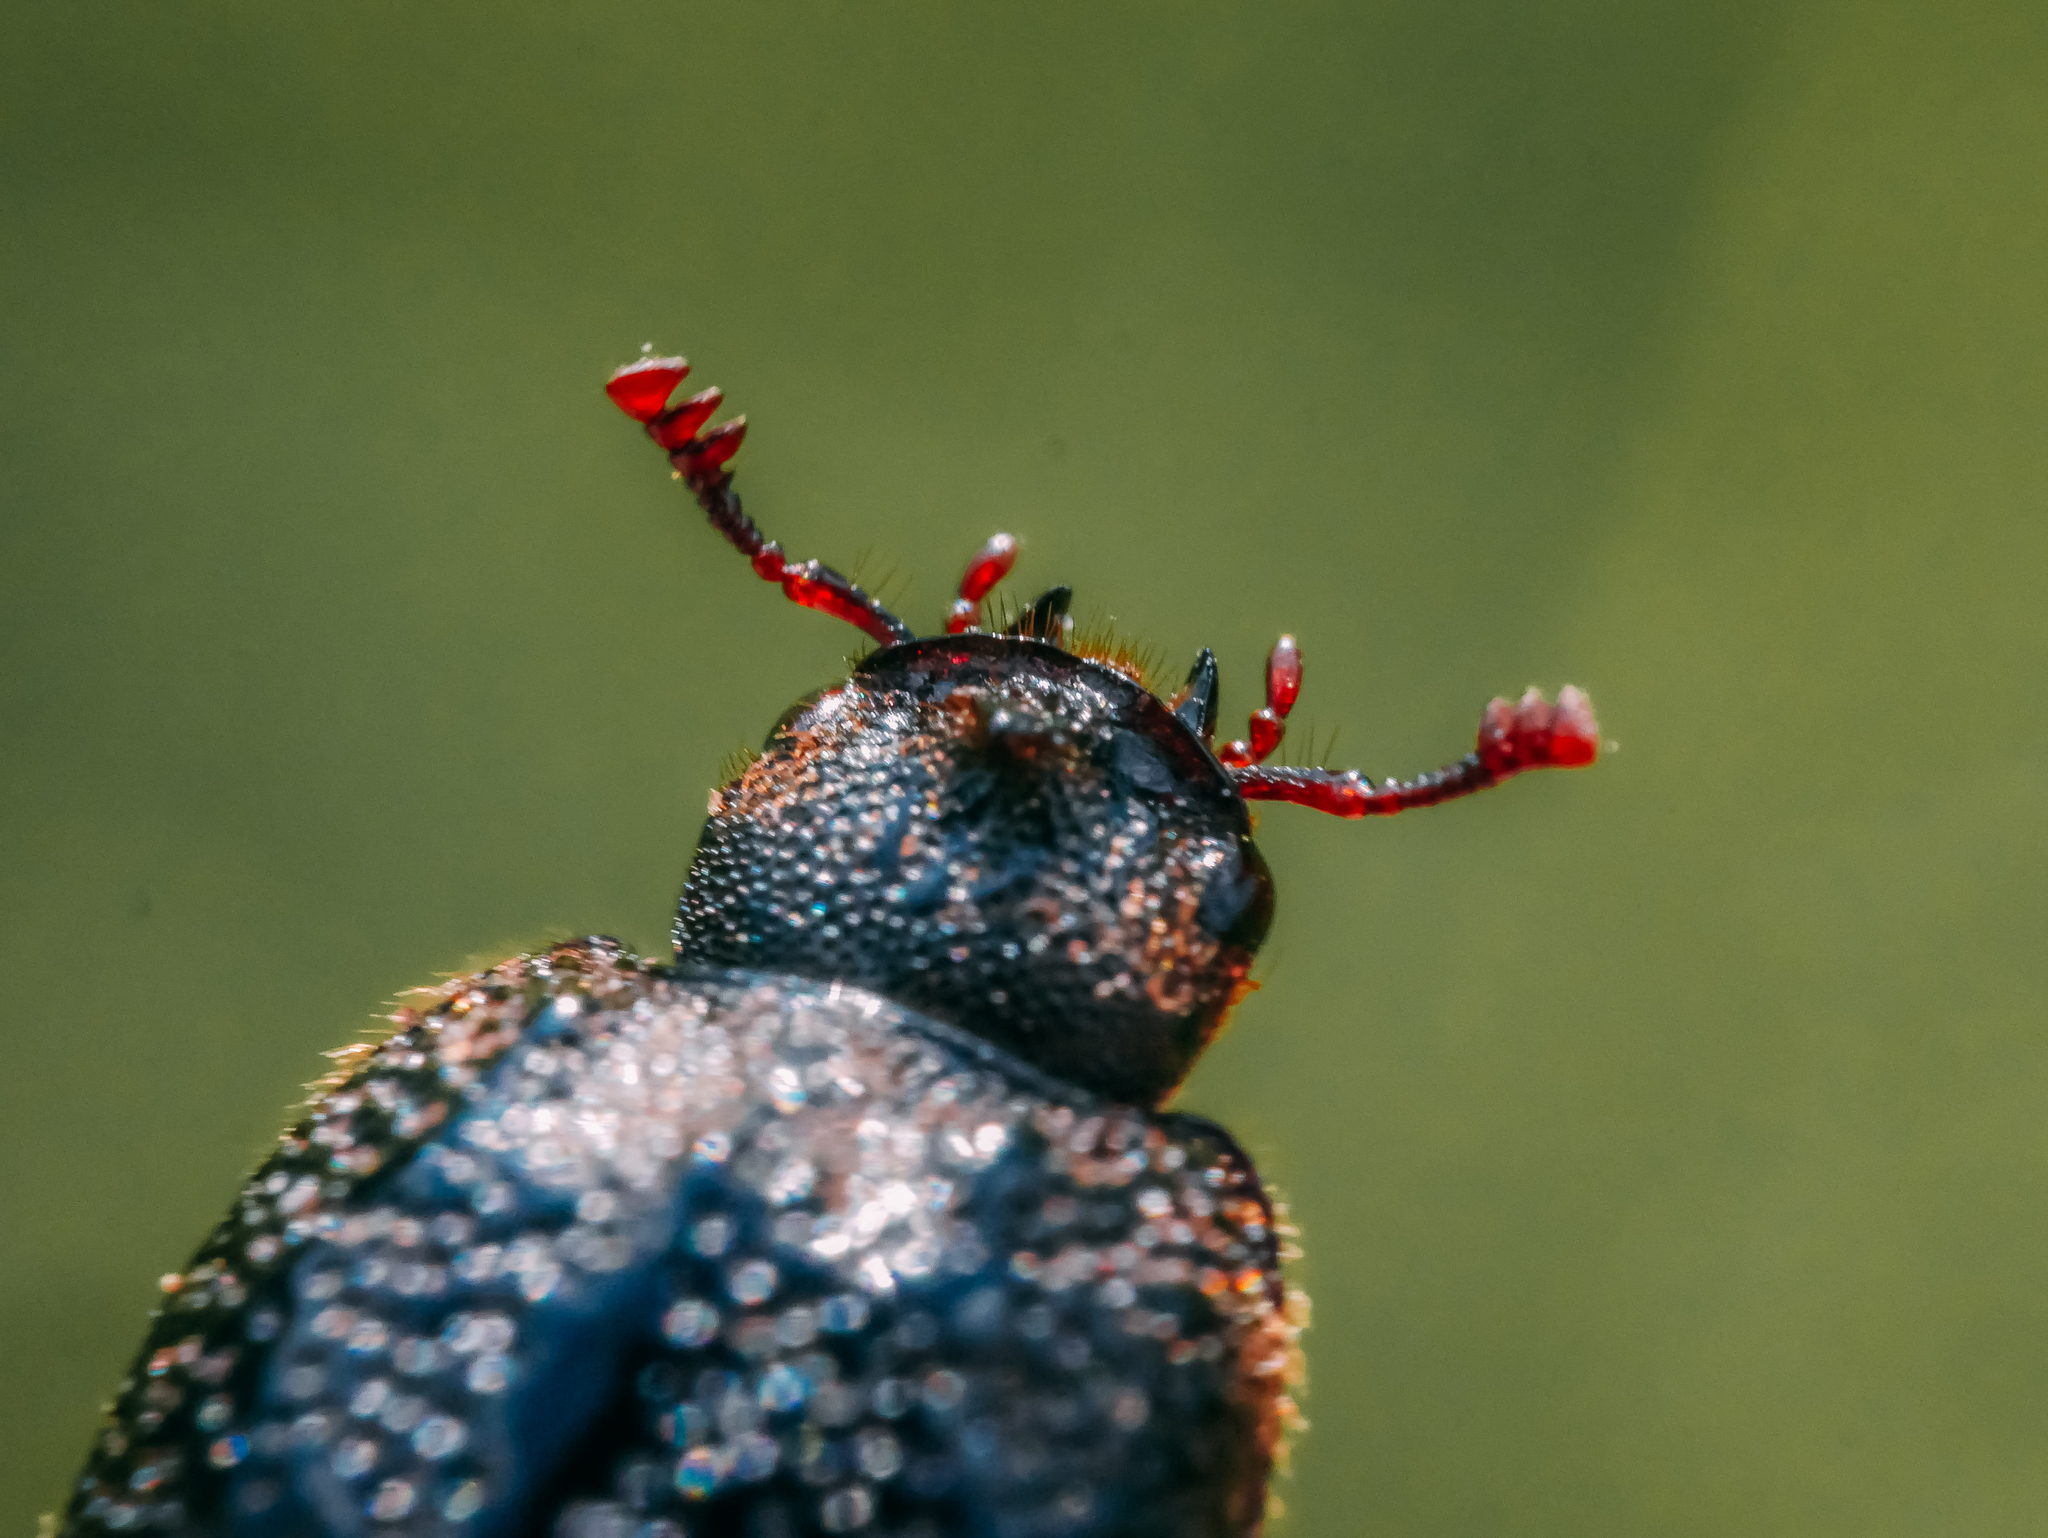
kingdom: Animalia
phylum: Arthropoda
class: Insecta
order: Coleoptera
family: Lucanidae
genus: Sinodendron
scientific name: Sinodendron cylindricum
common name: Rhinoceros beetle
